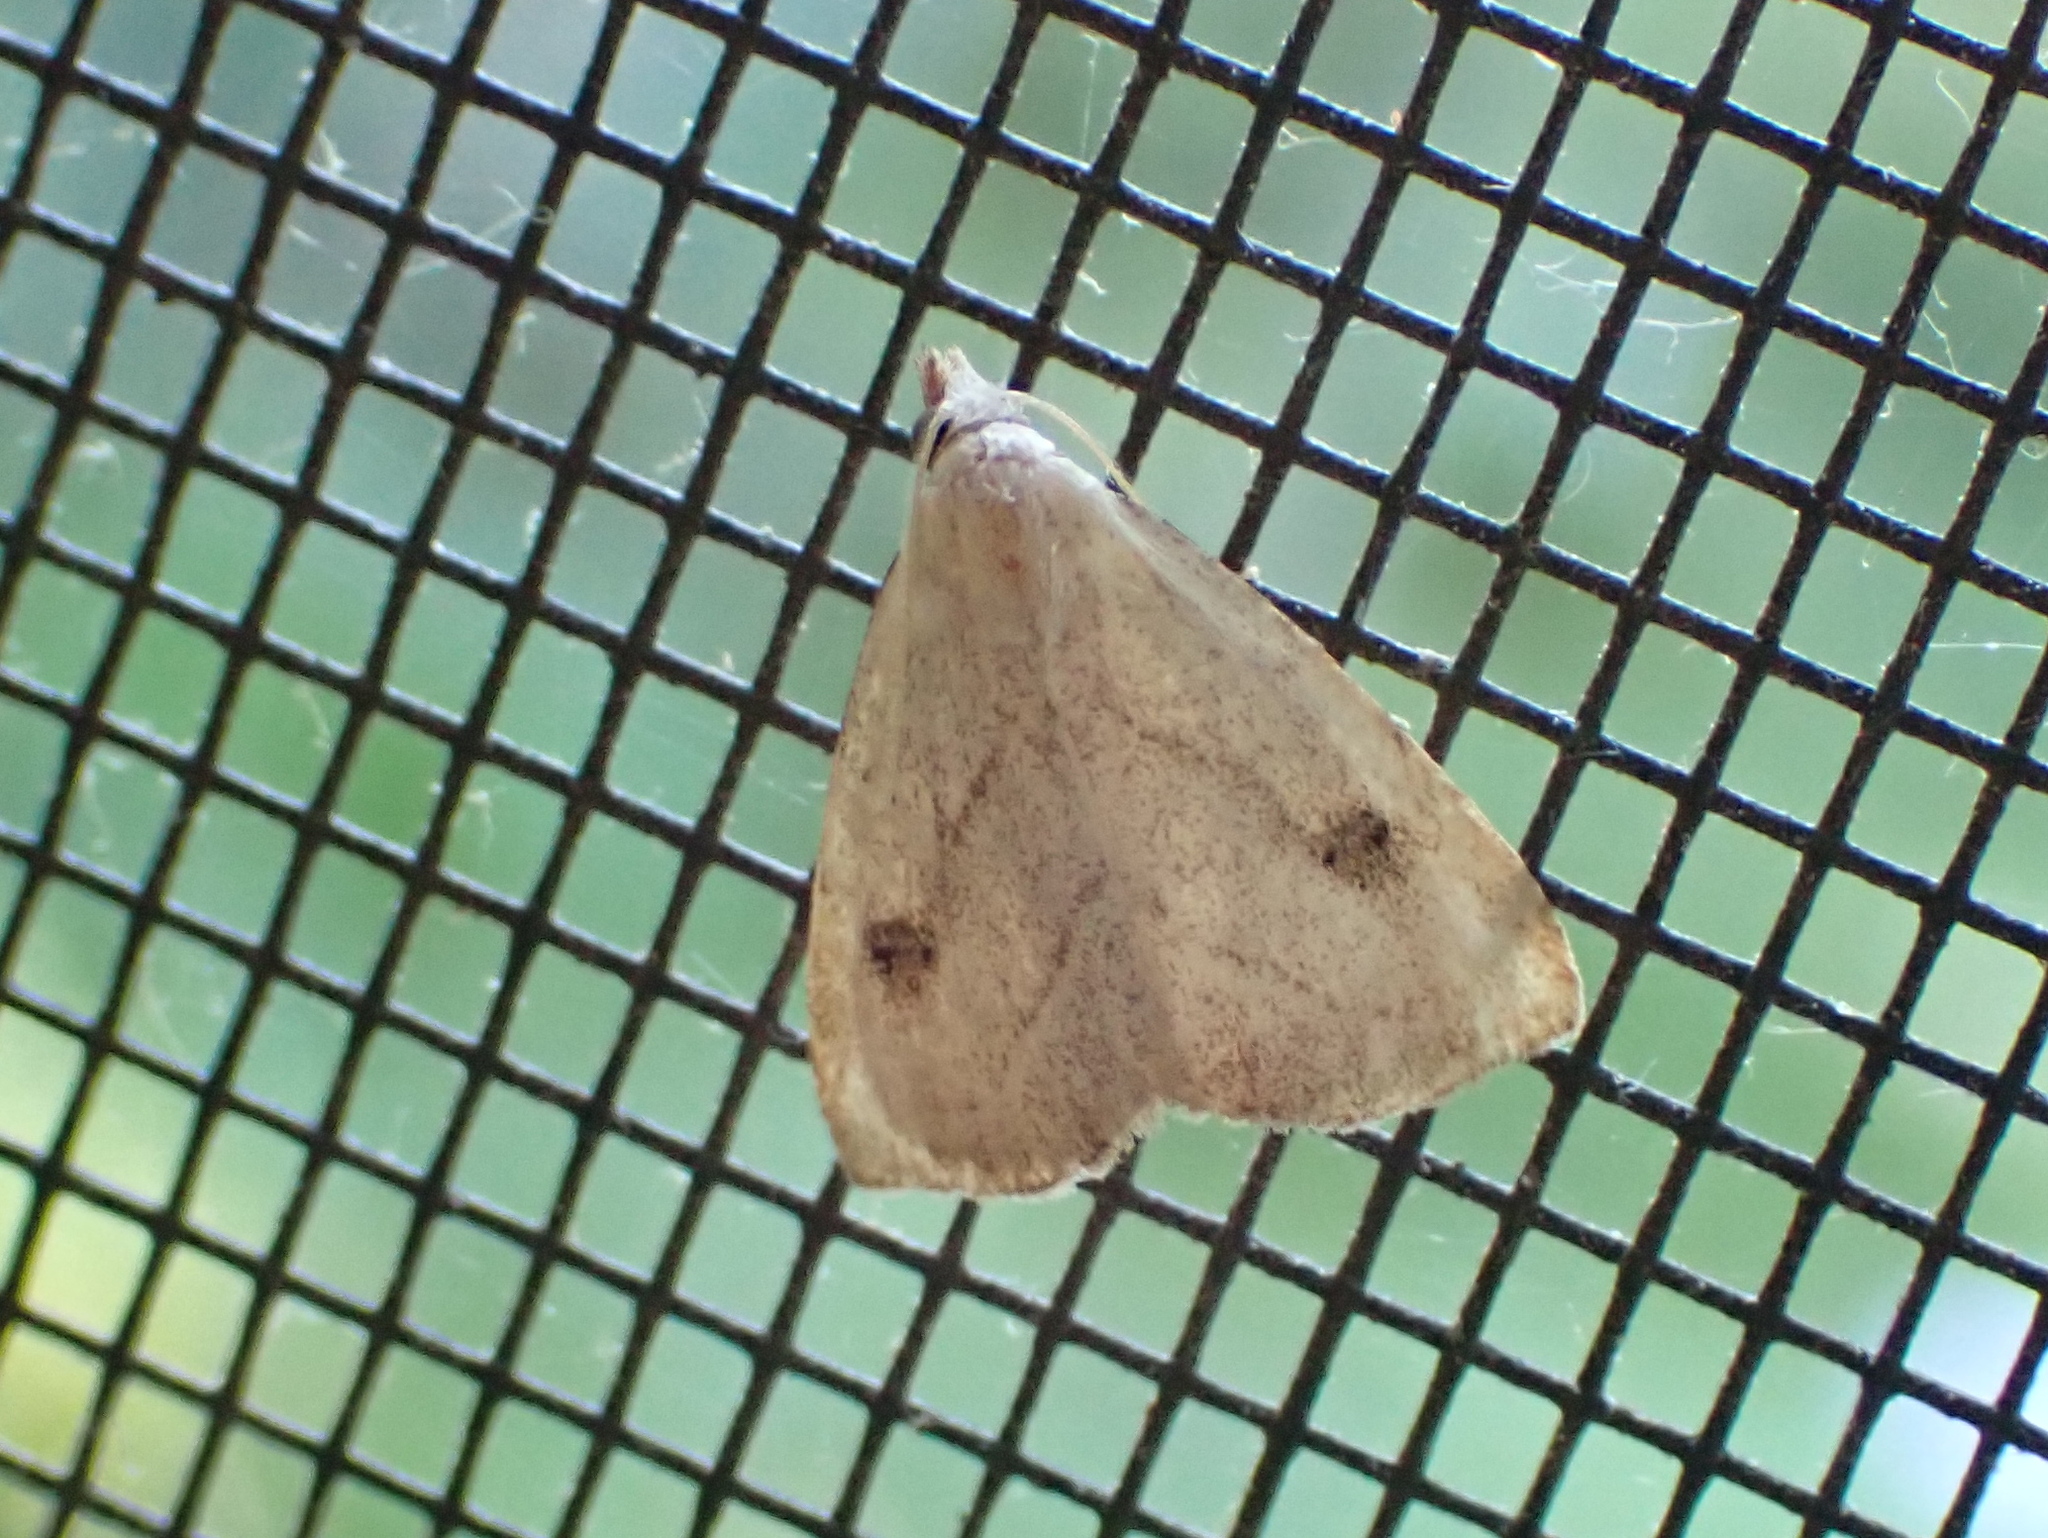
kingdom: Animalia
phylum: Arthropoda
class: Insecta
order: Lepidoptera
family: Erebidae
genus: Rivula
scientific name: Rivula propinqualis
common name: Spotted grass moth
